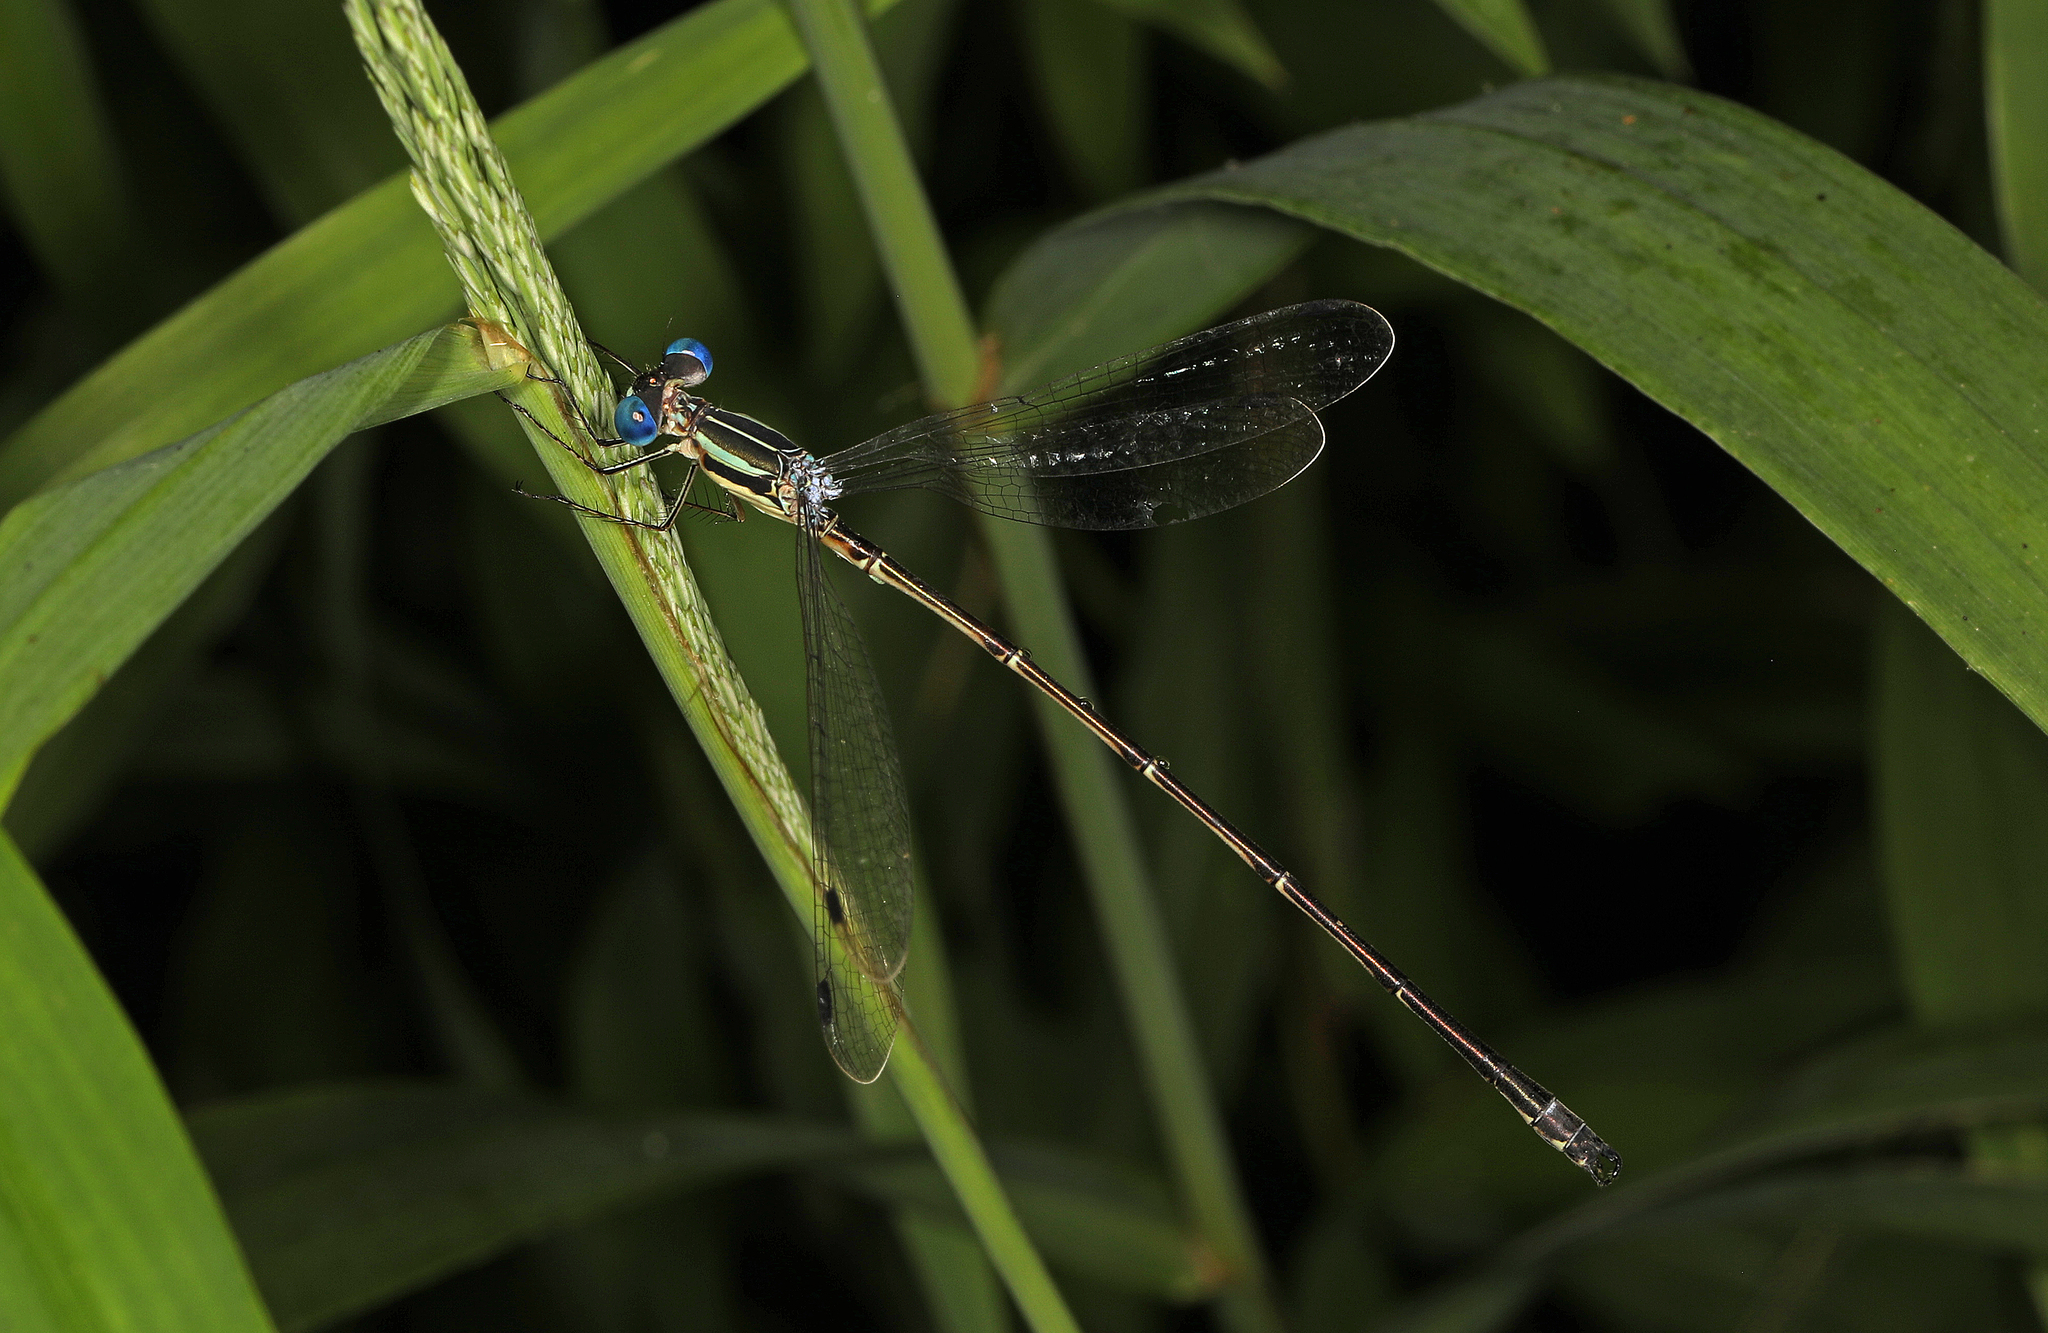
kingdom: Animalia
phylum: Arthropoda
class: Insecta
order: Odonata
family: Lestidae
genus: Lestes
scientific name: Lestes rectangularis
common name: Slender spreadwing
